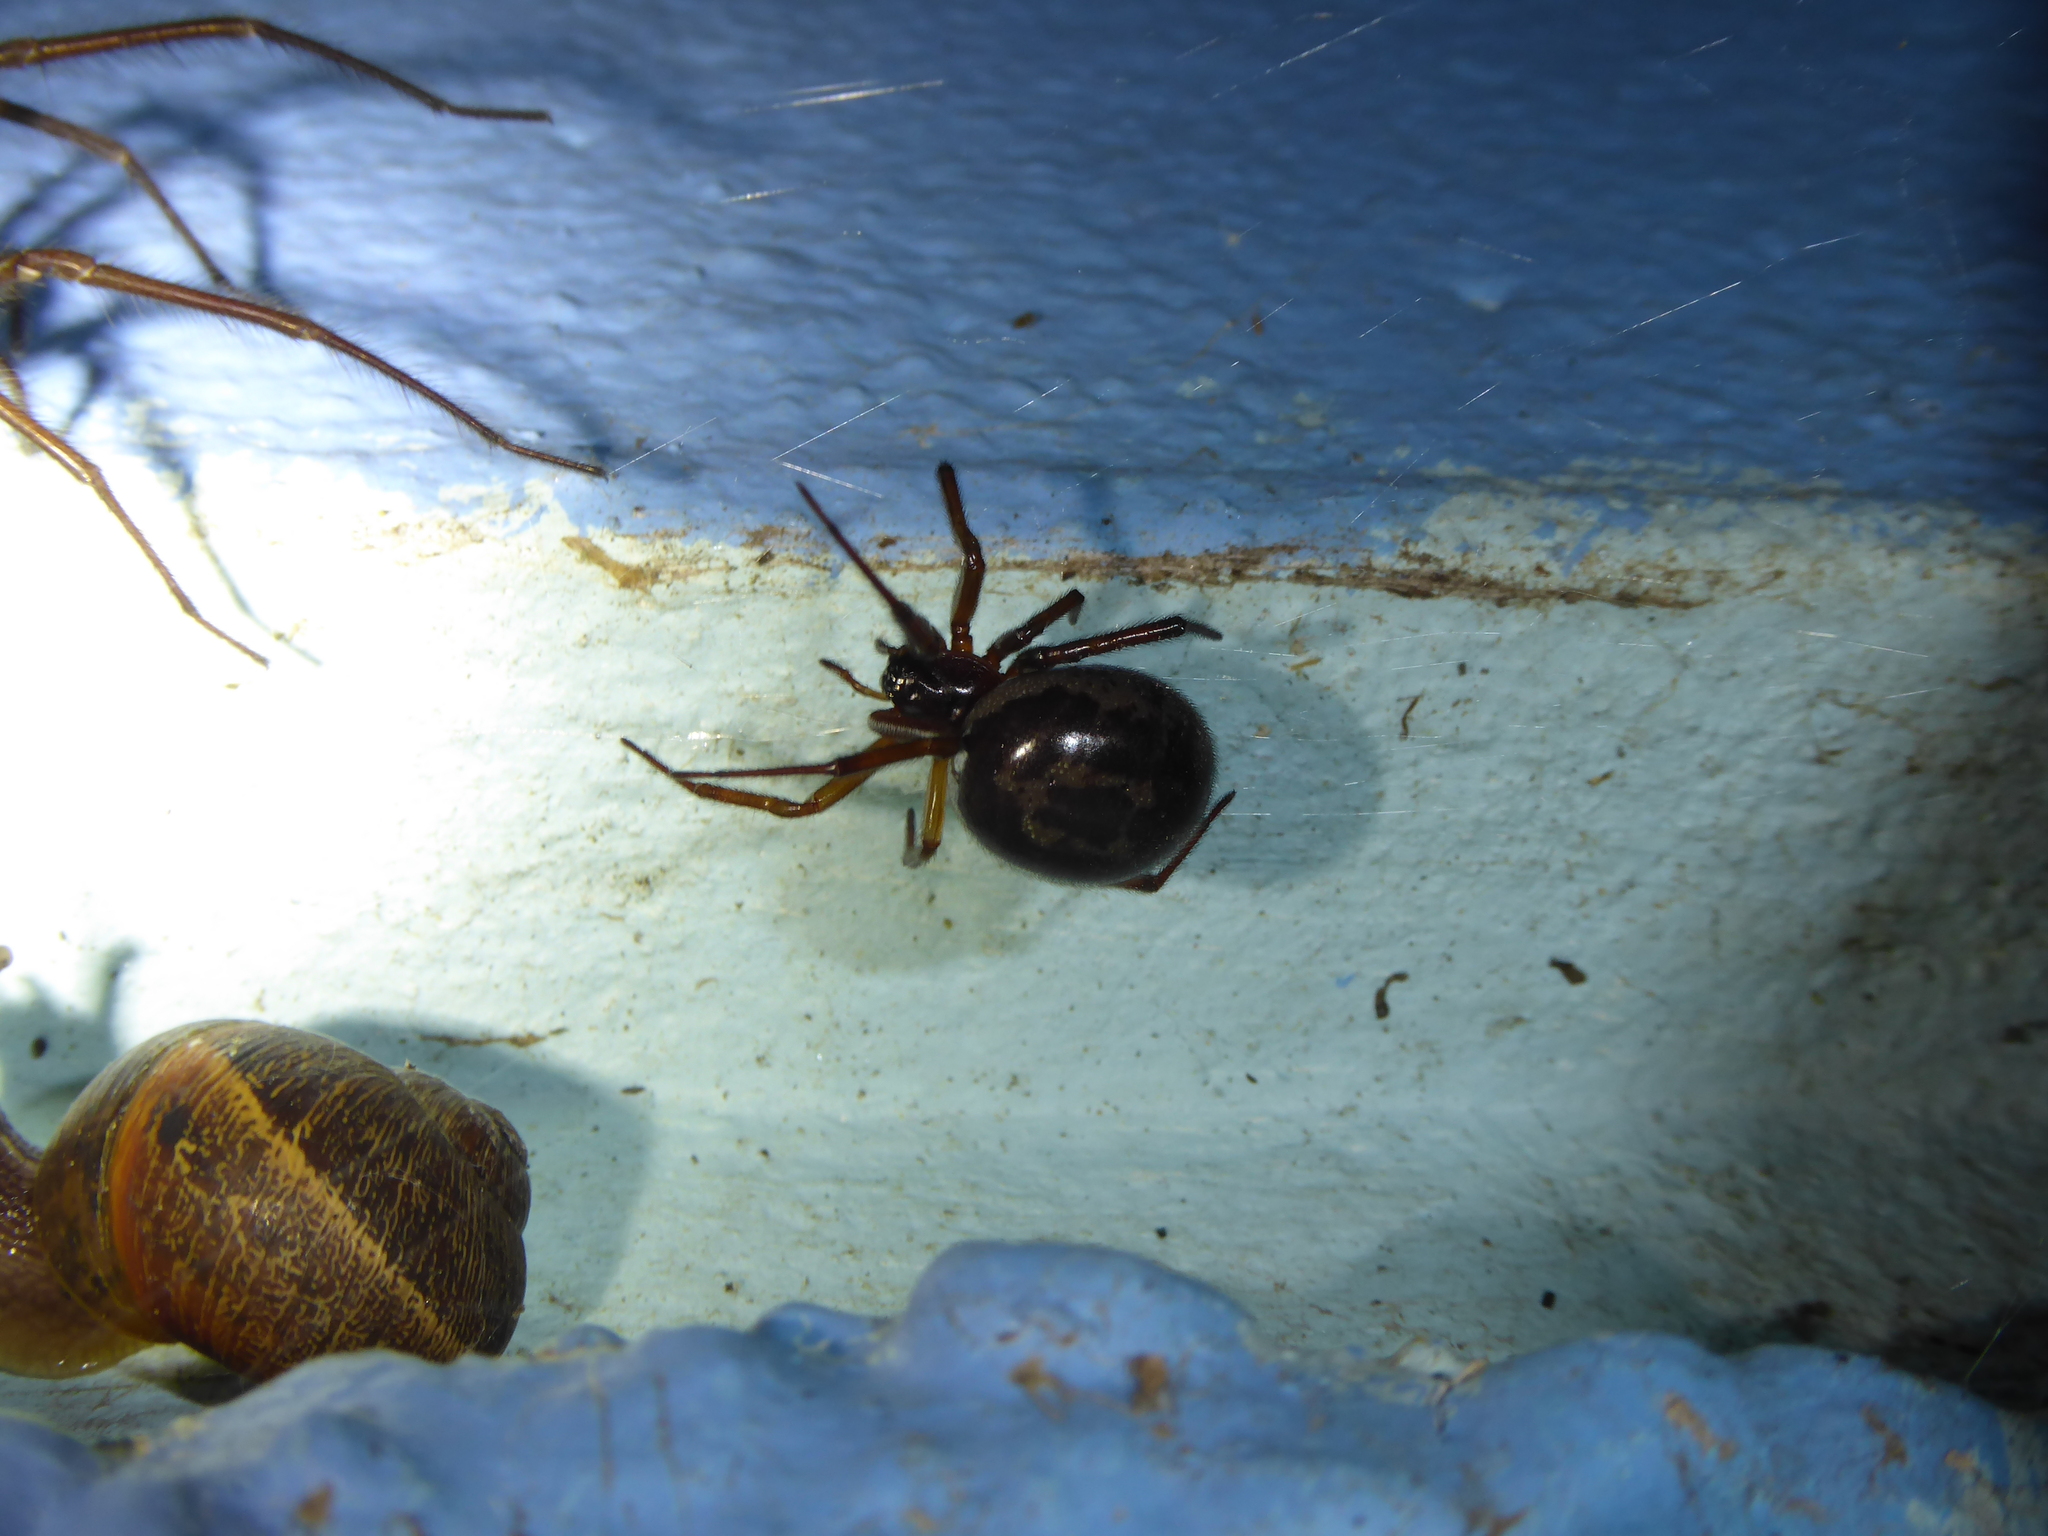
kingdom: Animalia
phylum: Arthropoda
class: Arachnida
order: Araneae
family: Theridiidae
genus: Steatoda
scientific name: Steatoda nobilis
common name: Cobweb weaver
